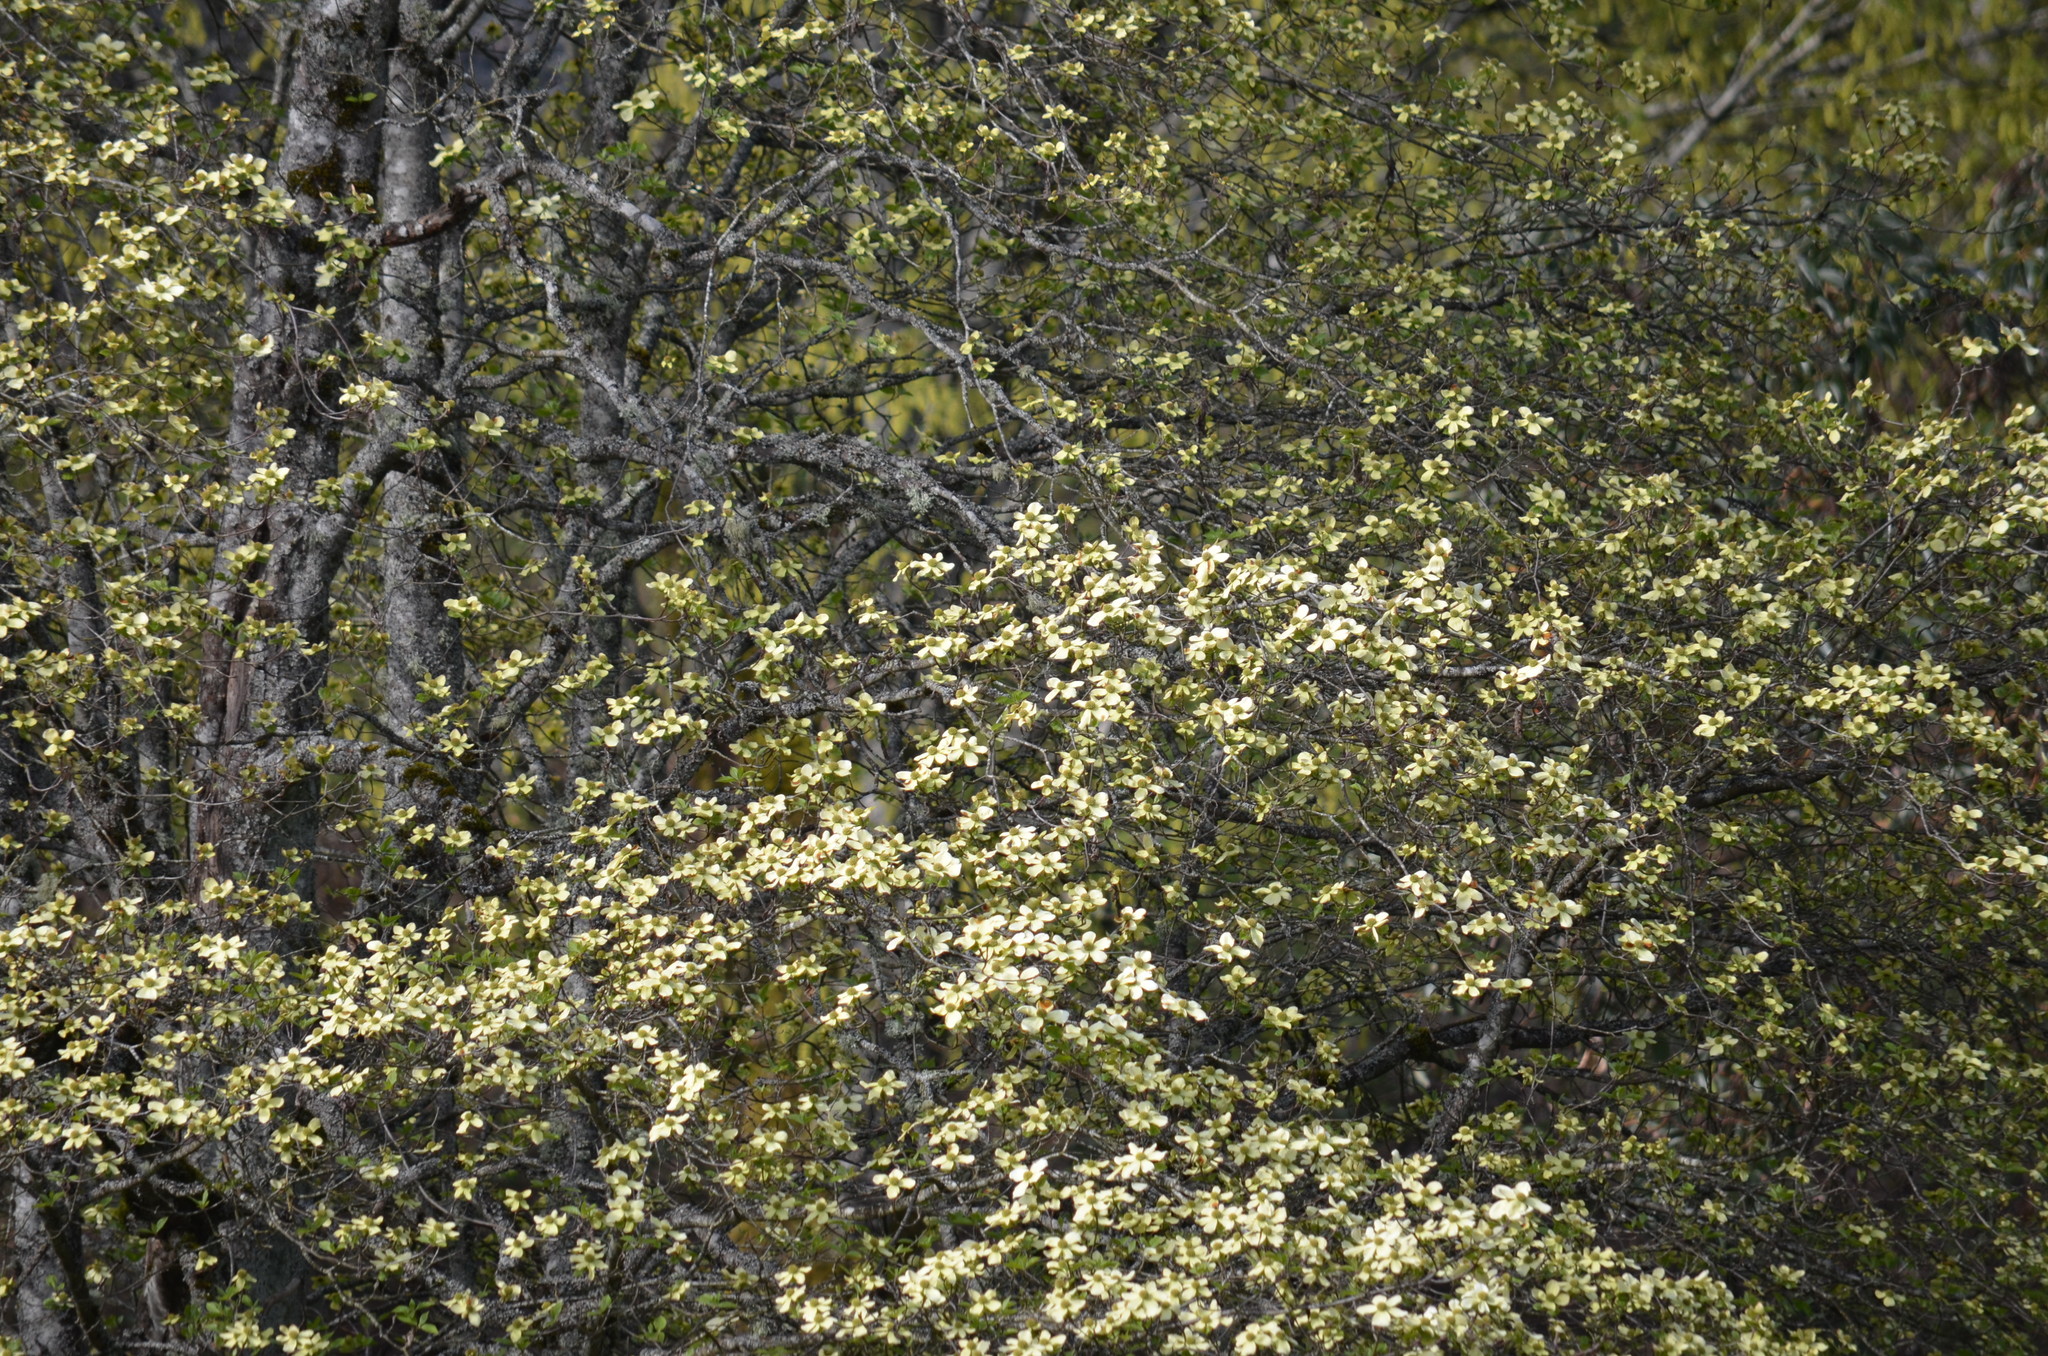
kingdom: Plantae
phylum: Tracheophyta
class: Magnoliopsida
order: Cornales
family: Cornaceae
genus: Cornus
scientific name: Cornus nuttallii
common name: Pacific dogwood
